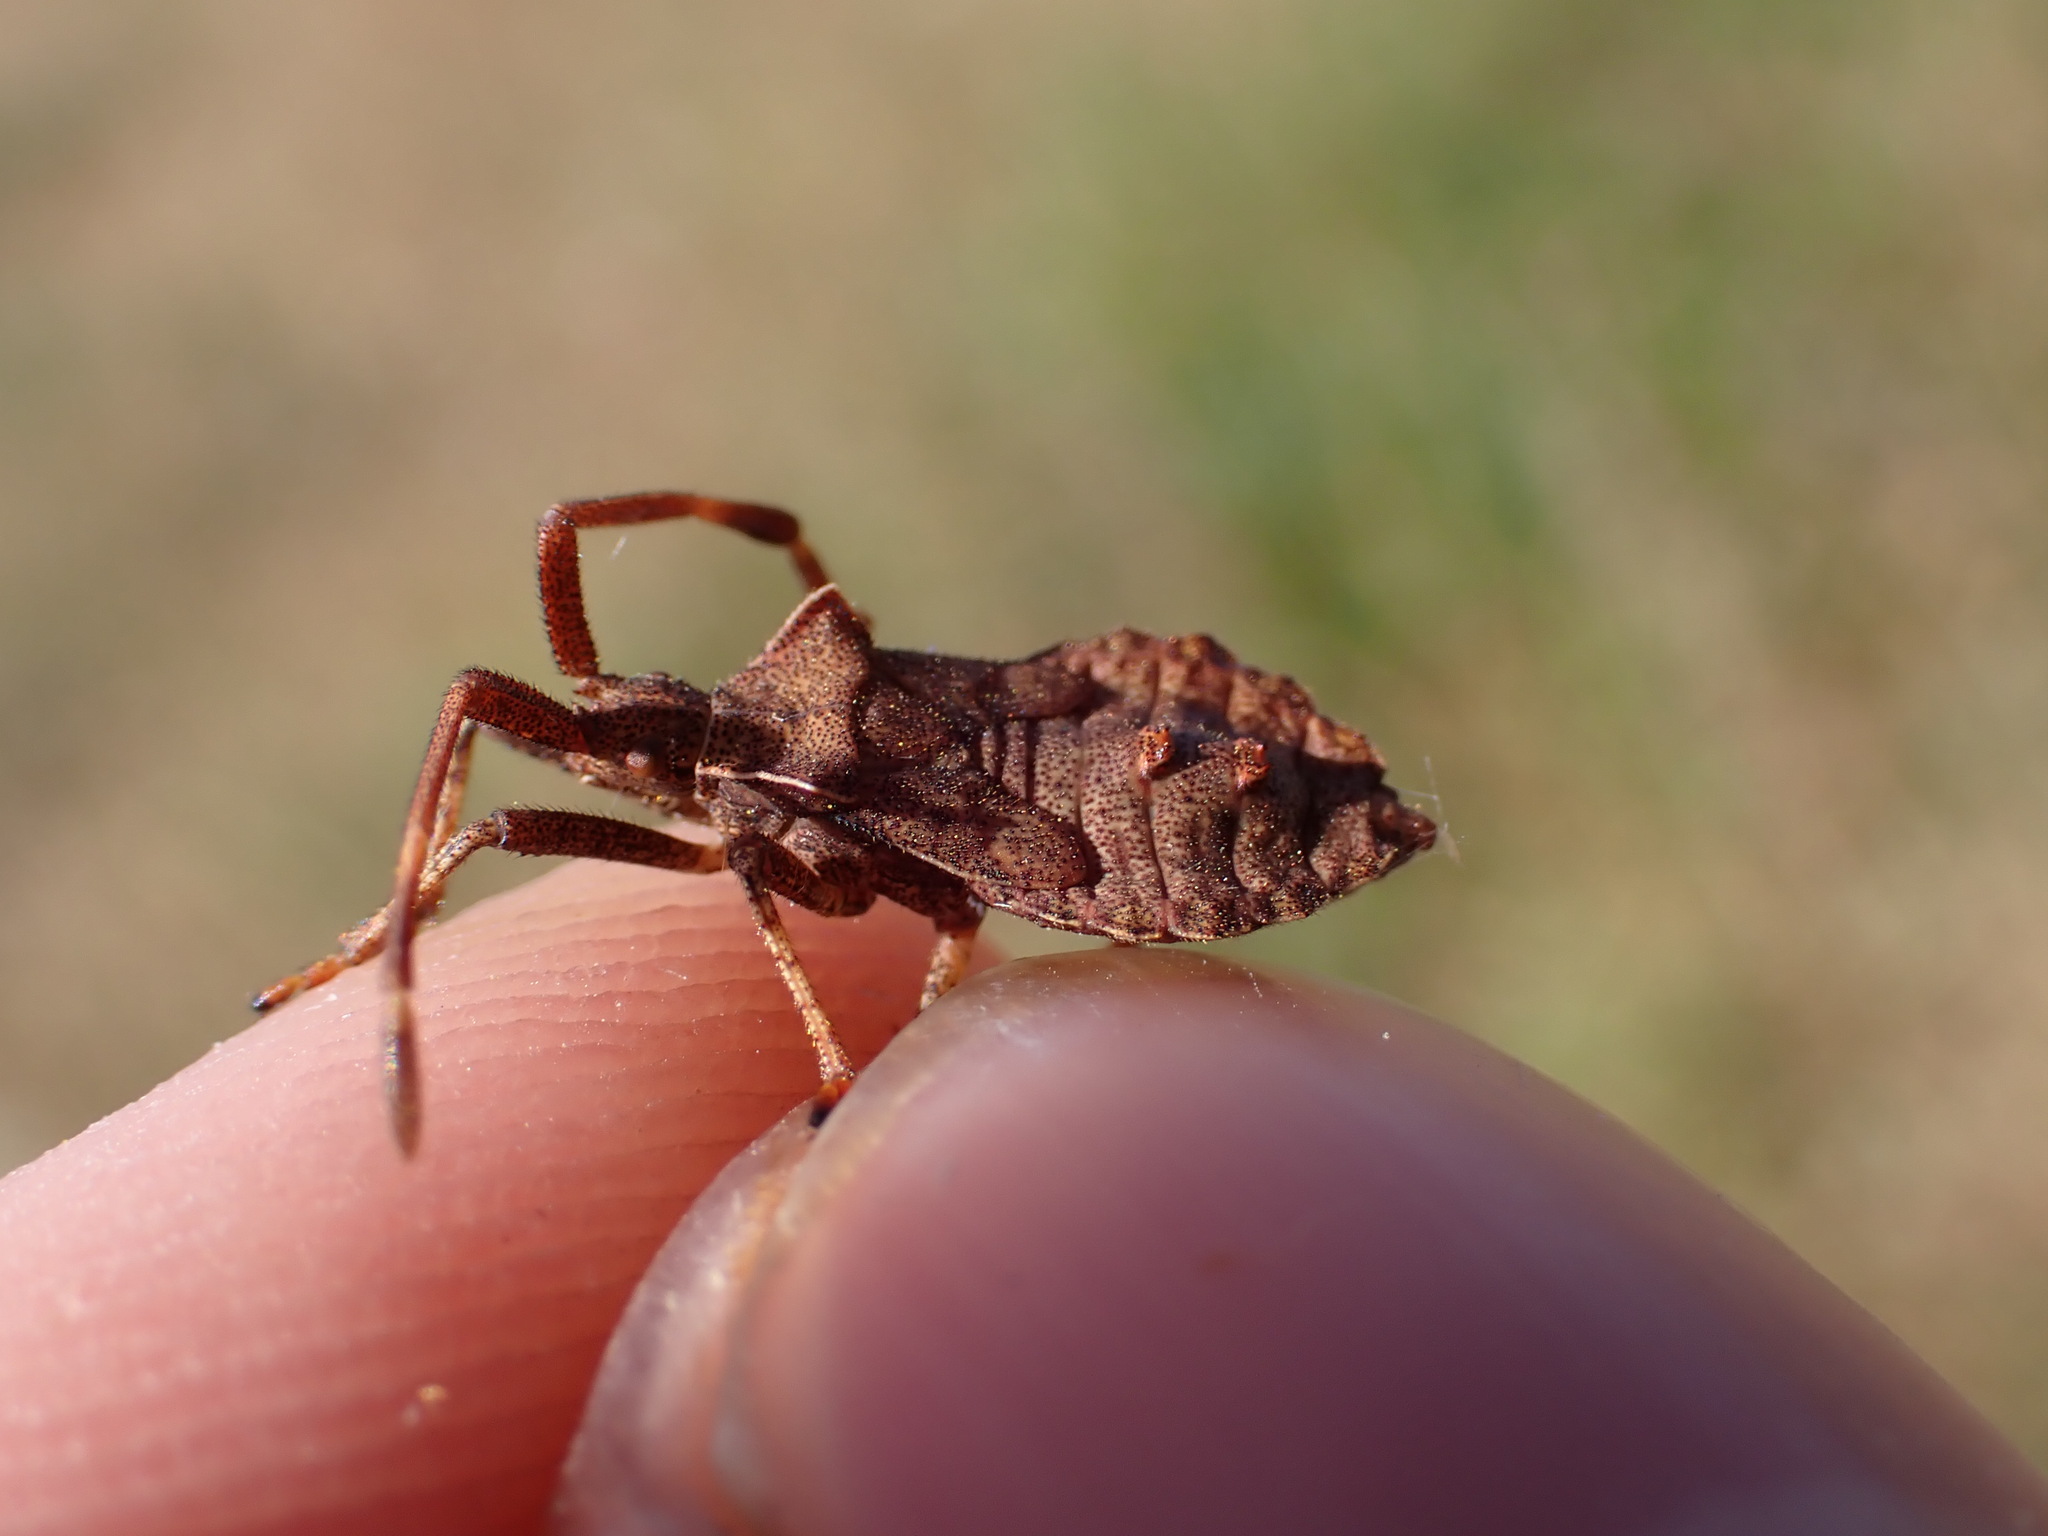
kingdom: Animalia
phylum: Arthropoda
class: Insecta
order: Hemiptera
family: Coreidae
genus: Coreus
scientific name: Coreus marginatus
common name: Dock bug
